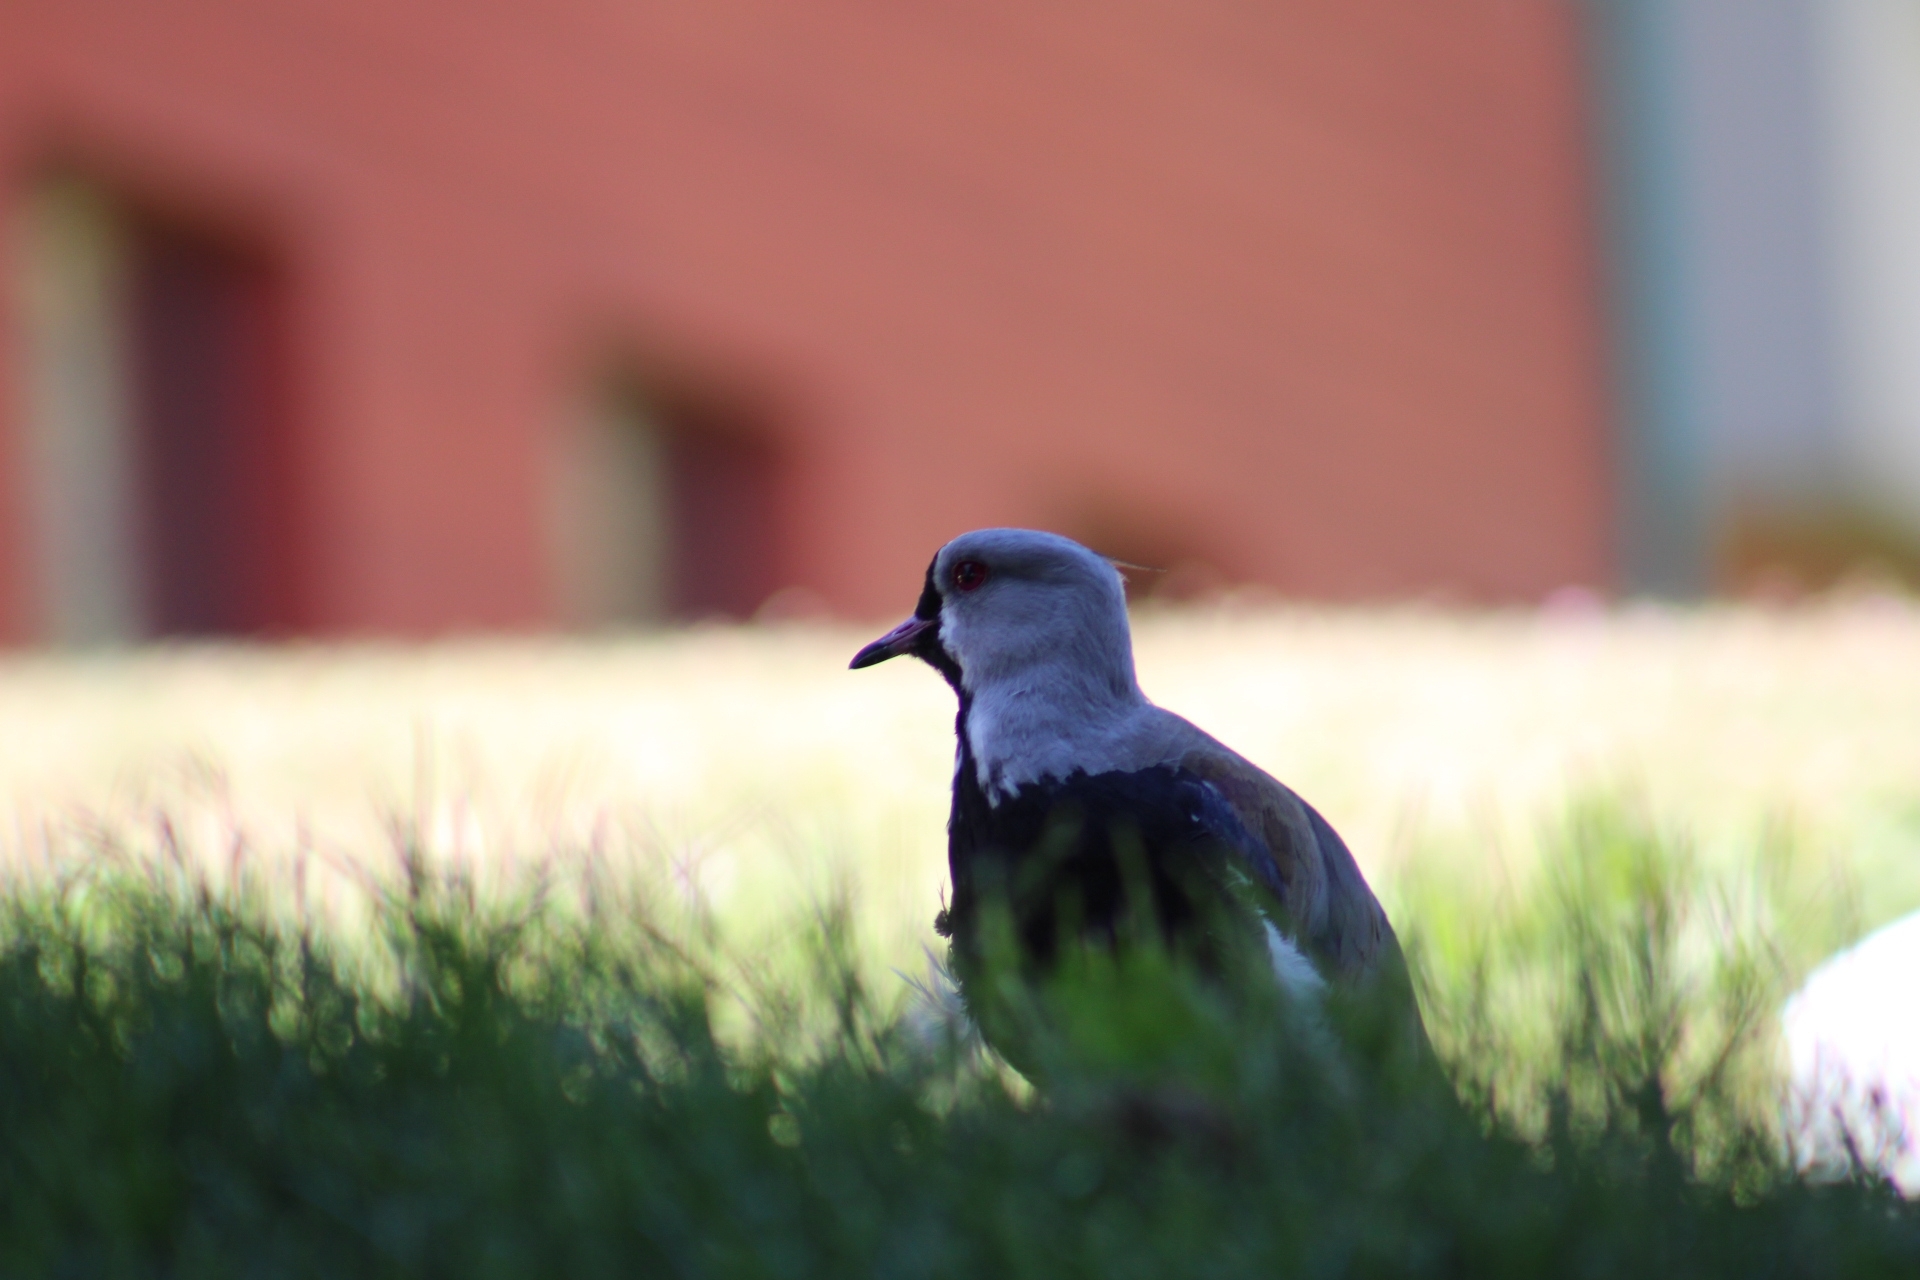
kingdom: Animalia
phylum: Chordata
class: Aves
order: Charadriiformes
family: Charadriidae
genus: Vanellus
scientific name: Vanellus chilensis
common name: Southern lapwing
